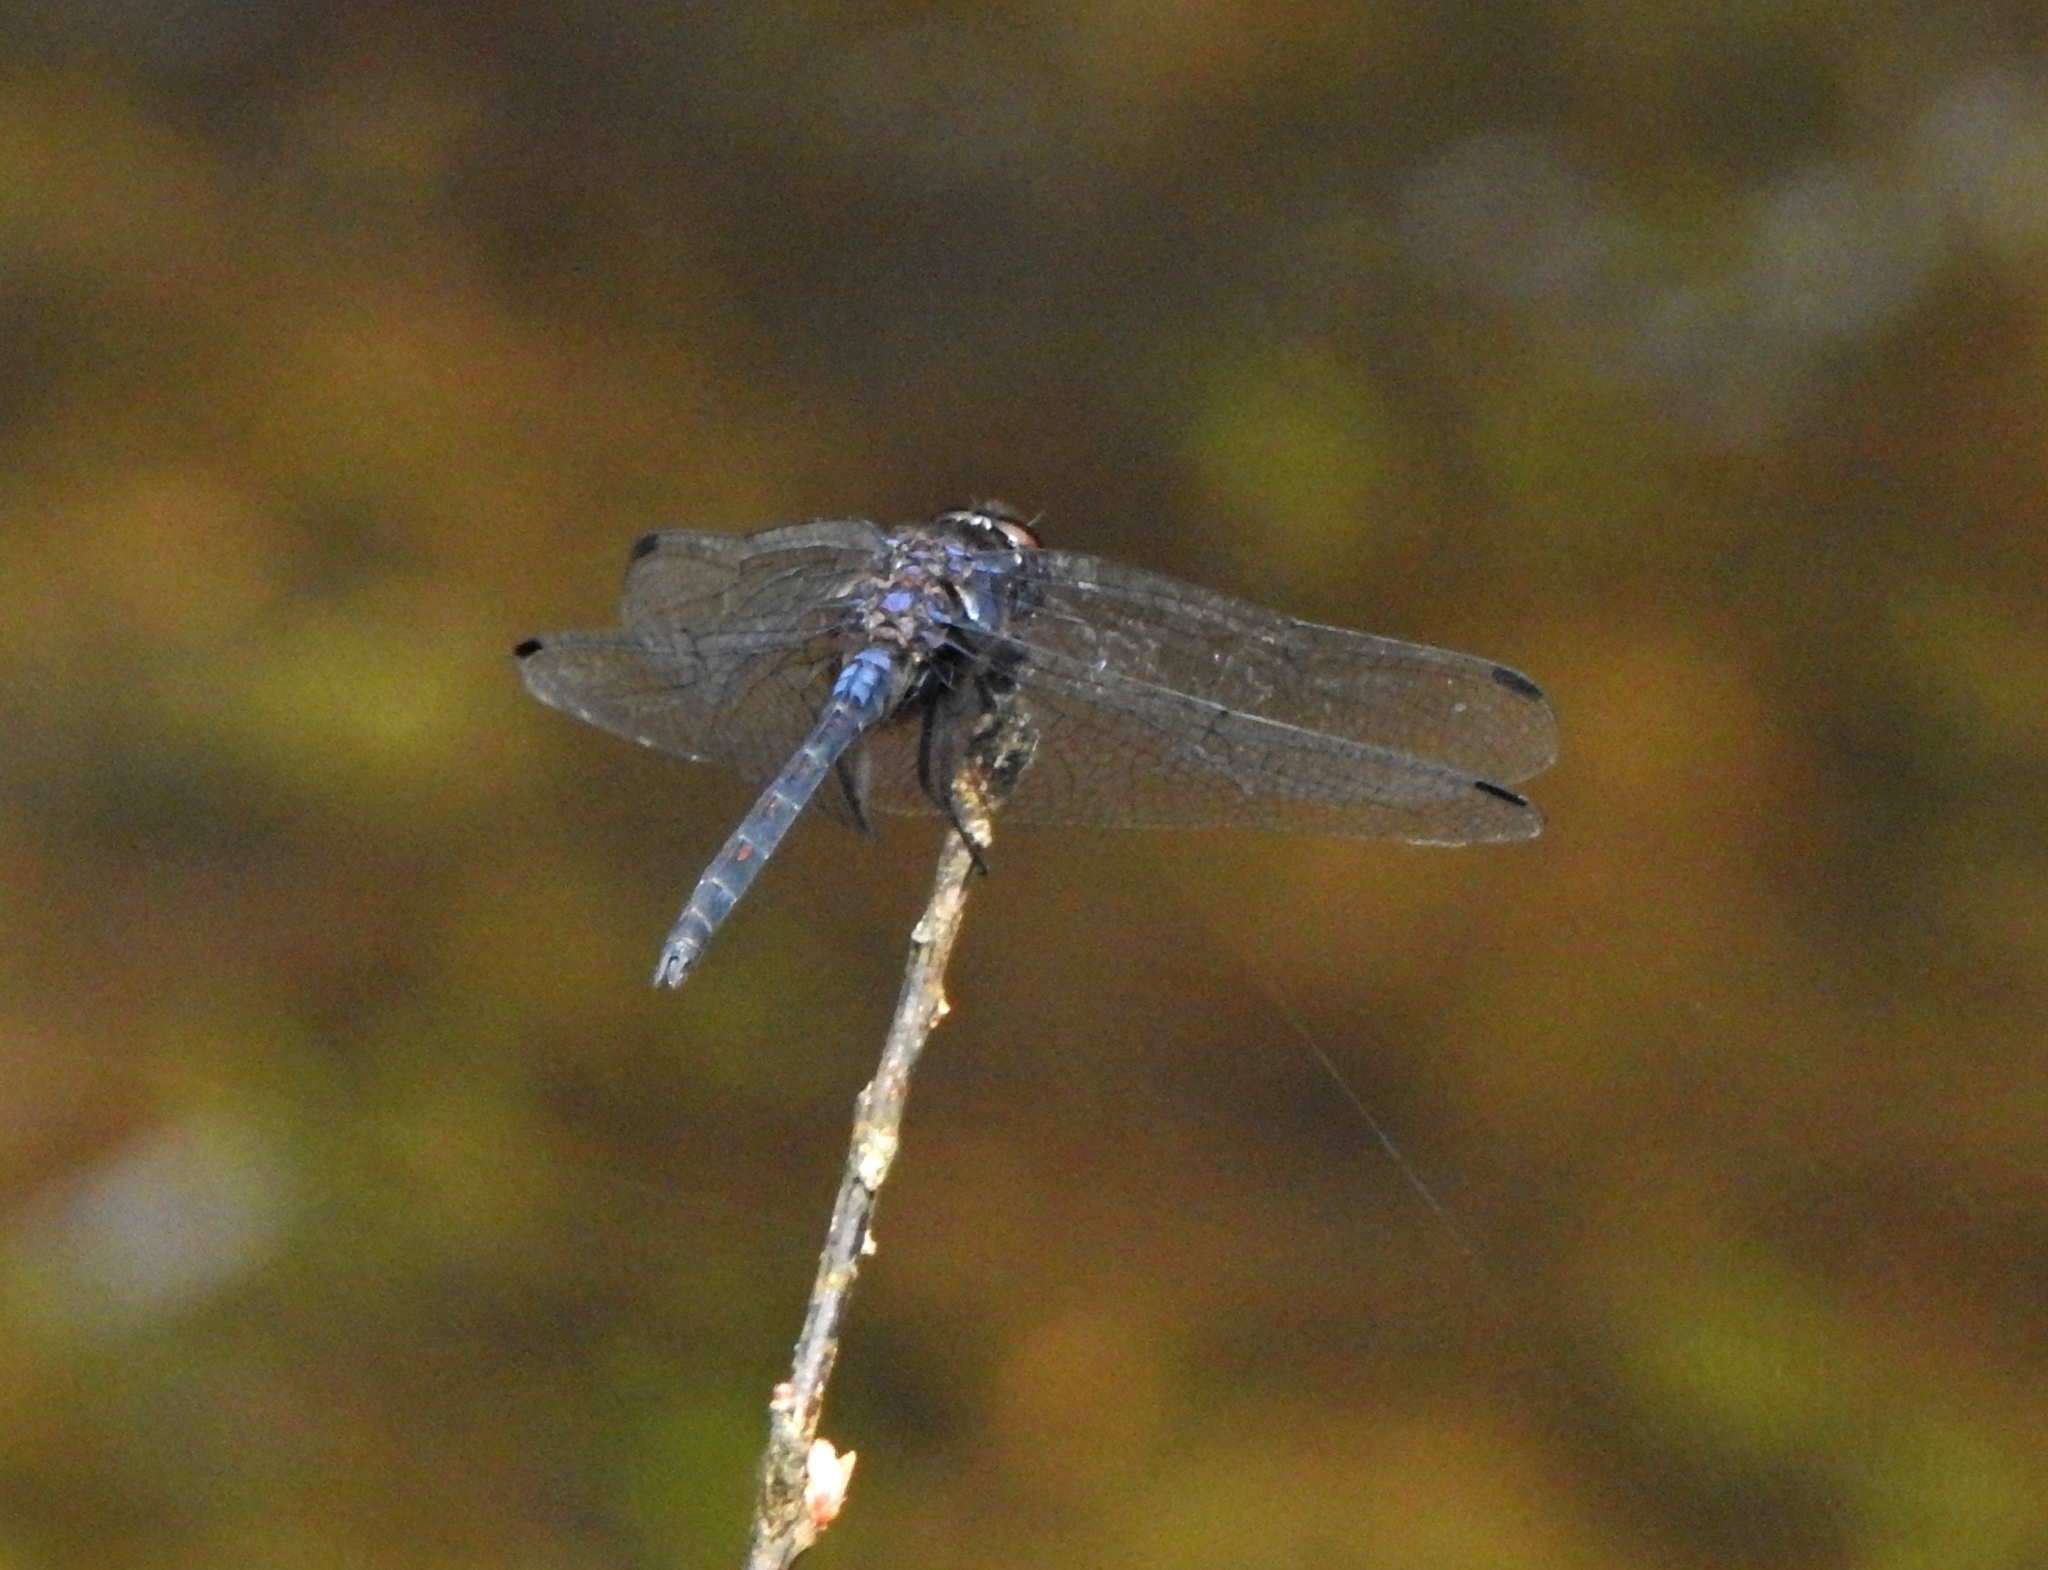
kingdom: Animalia
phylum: Arthropoda
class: Insecta
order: Odonata
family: Libellulidae
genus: Trithemis
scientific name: Trithemis festiva
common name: Indigo dropwing
